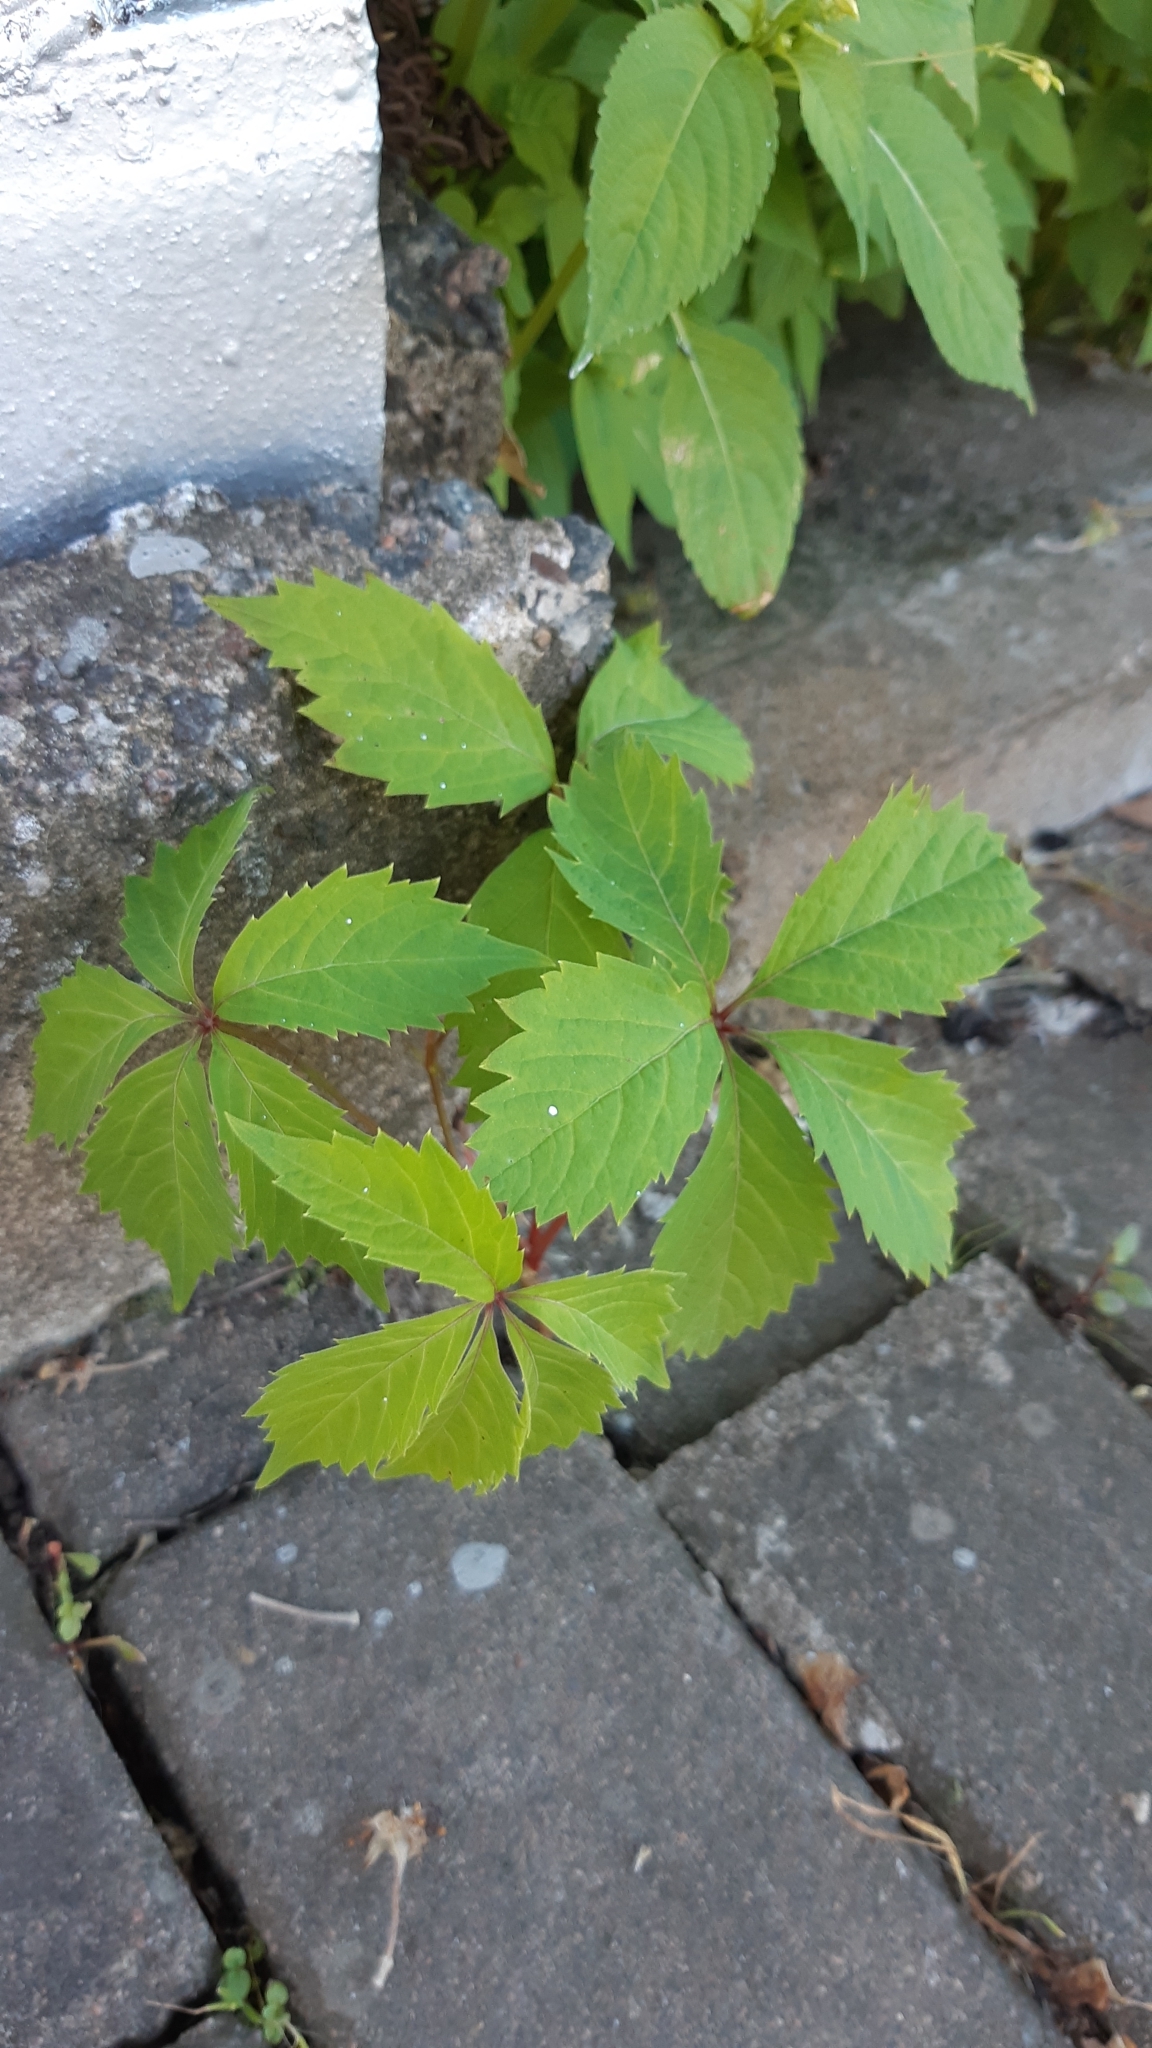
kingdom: Plantae
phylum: Tracheophyta
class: Magnoliopsida
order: Vitales
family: Vitaceae
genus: Parthenocissus
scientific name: Parthenocissus inserta
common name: False virginia-creeper
